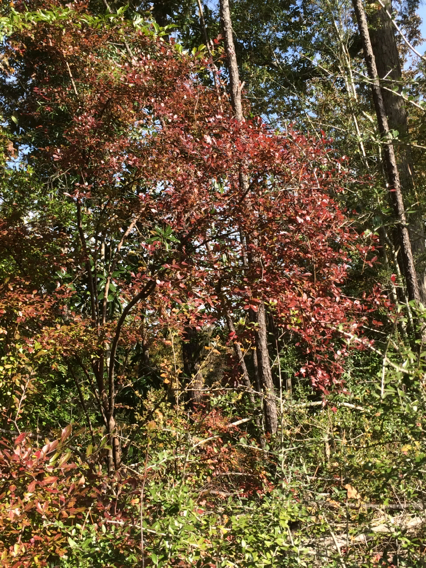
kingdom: Plantae
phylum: Tracheophyta
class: Magnoliopsida
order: Ericales
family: Ericaceae
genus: Vaccinium
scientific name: Vaccinium arboreum
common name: Farkleberry
